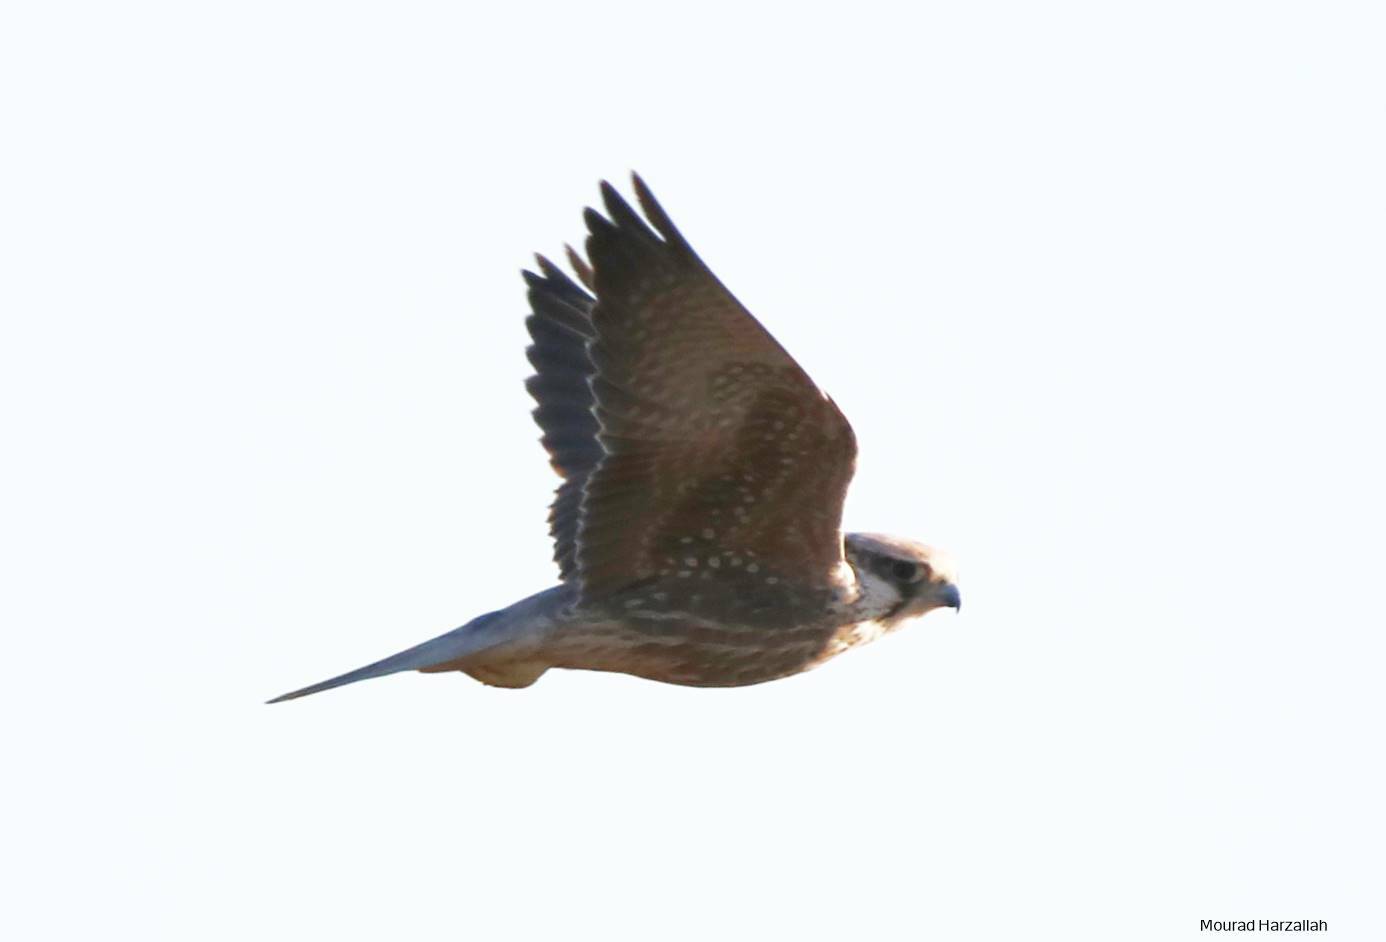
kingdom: Animalia
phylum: Chordata
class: Aves
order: Falconiformes
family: Falconidae
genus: Falco
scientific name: Falco biarmicus
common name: Lanner falcon
